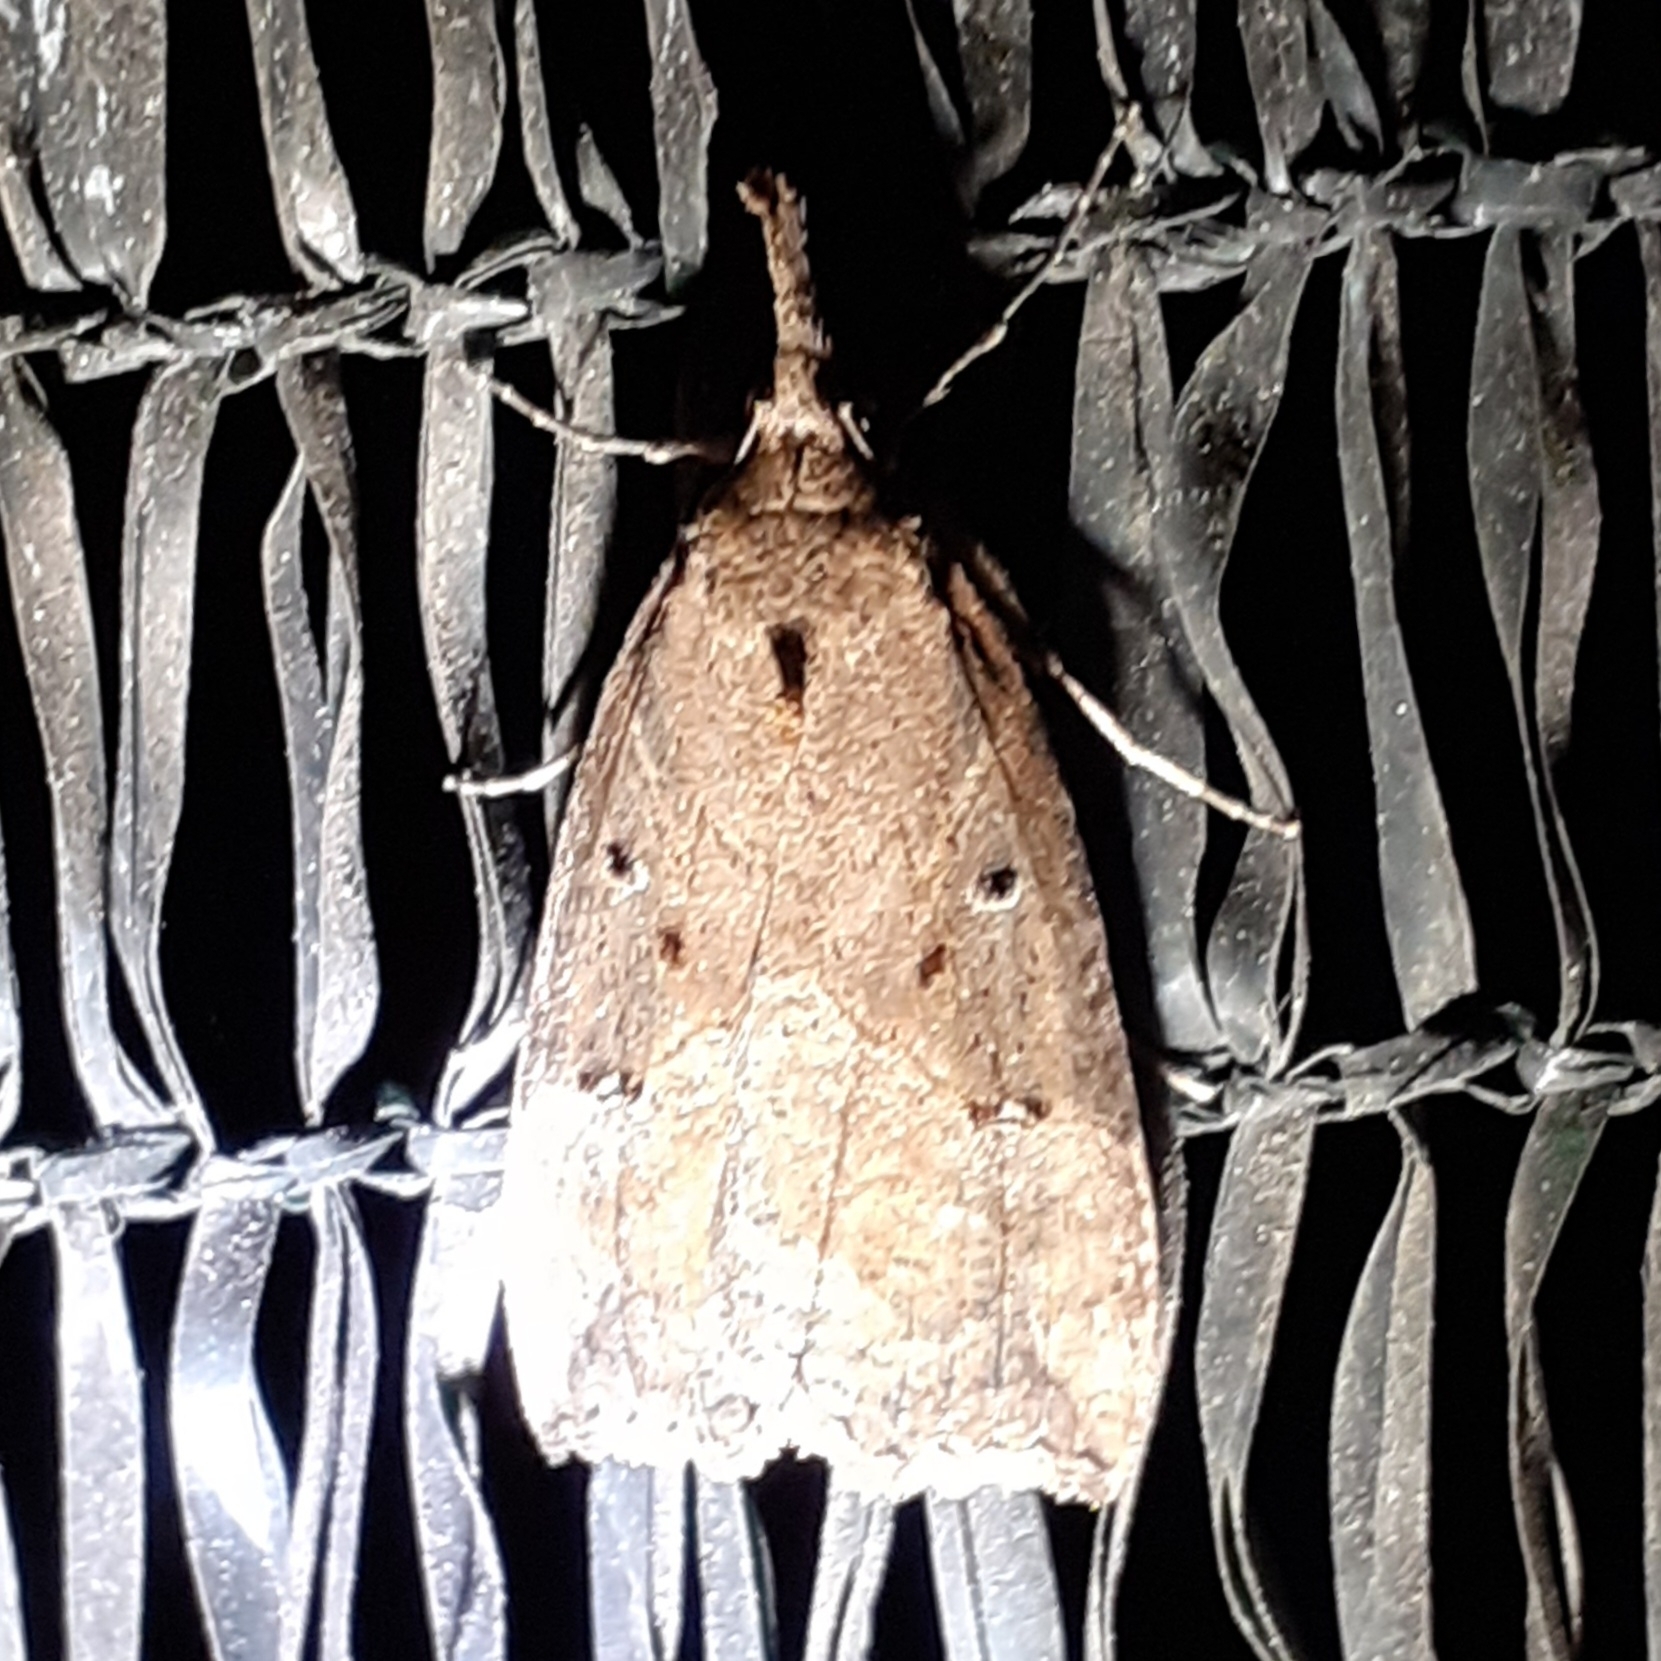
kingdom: Animalia
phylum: Arthropoda
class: Insecta
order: Lepidoptera
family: Erebidae
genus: Hypena
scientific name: Hypena rostralis
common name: Buttoned snout
